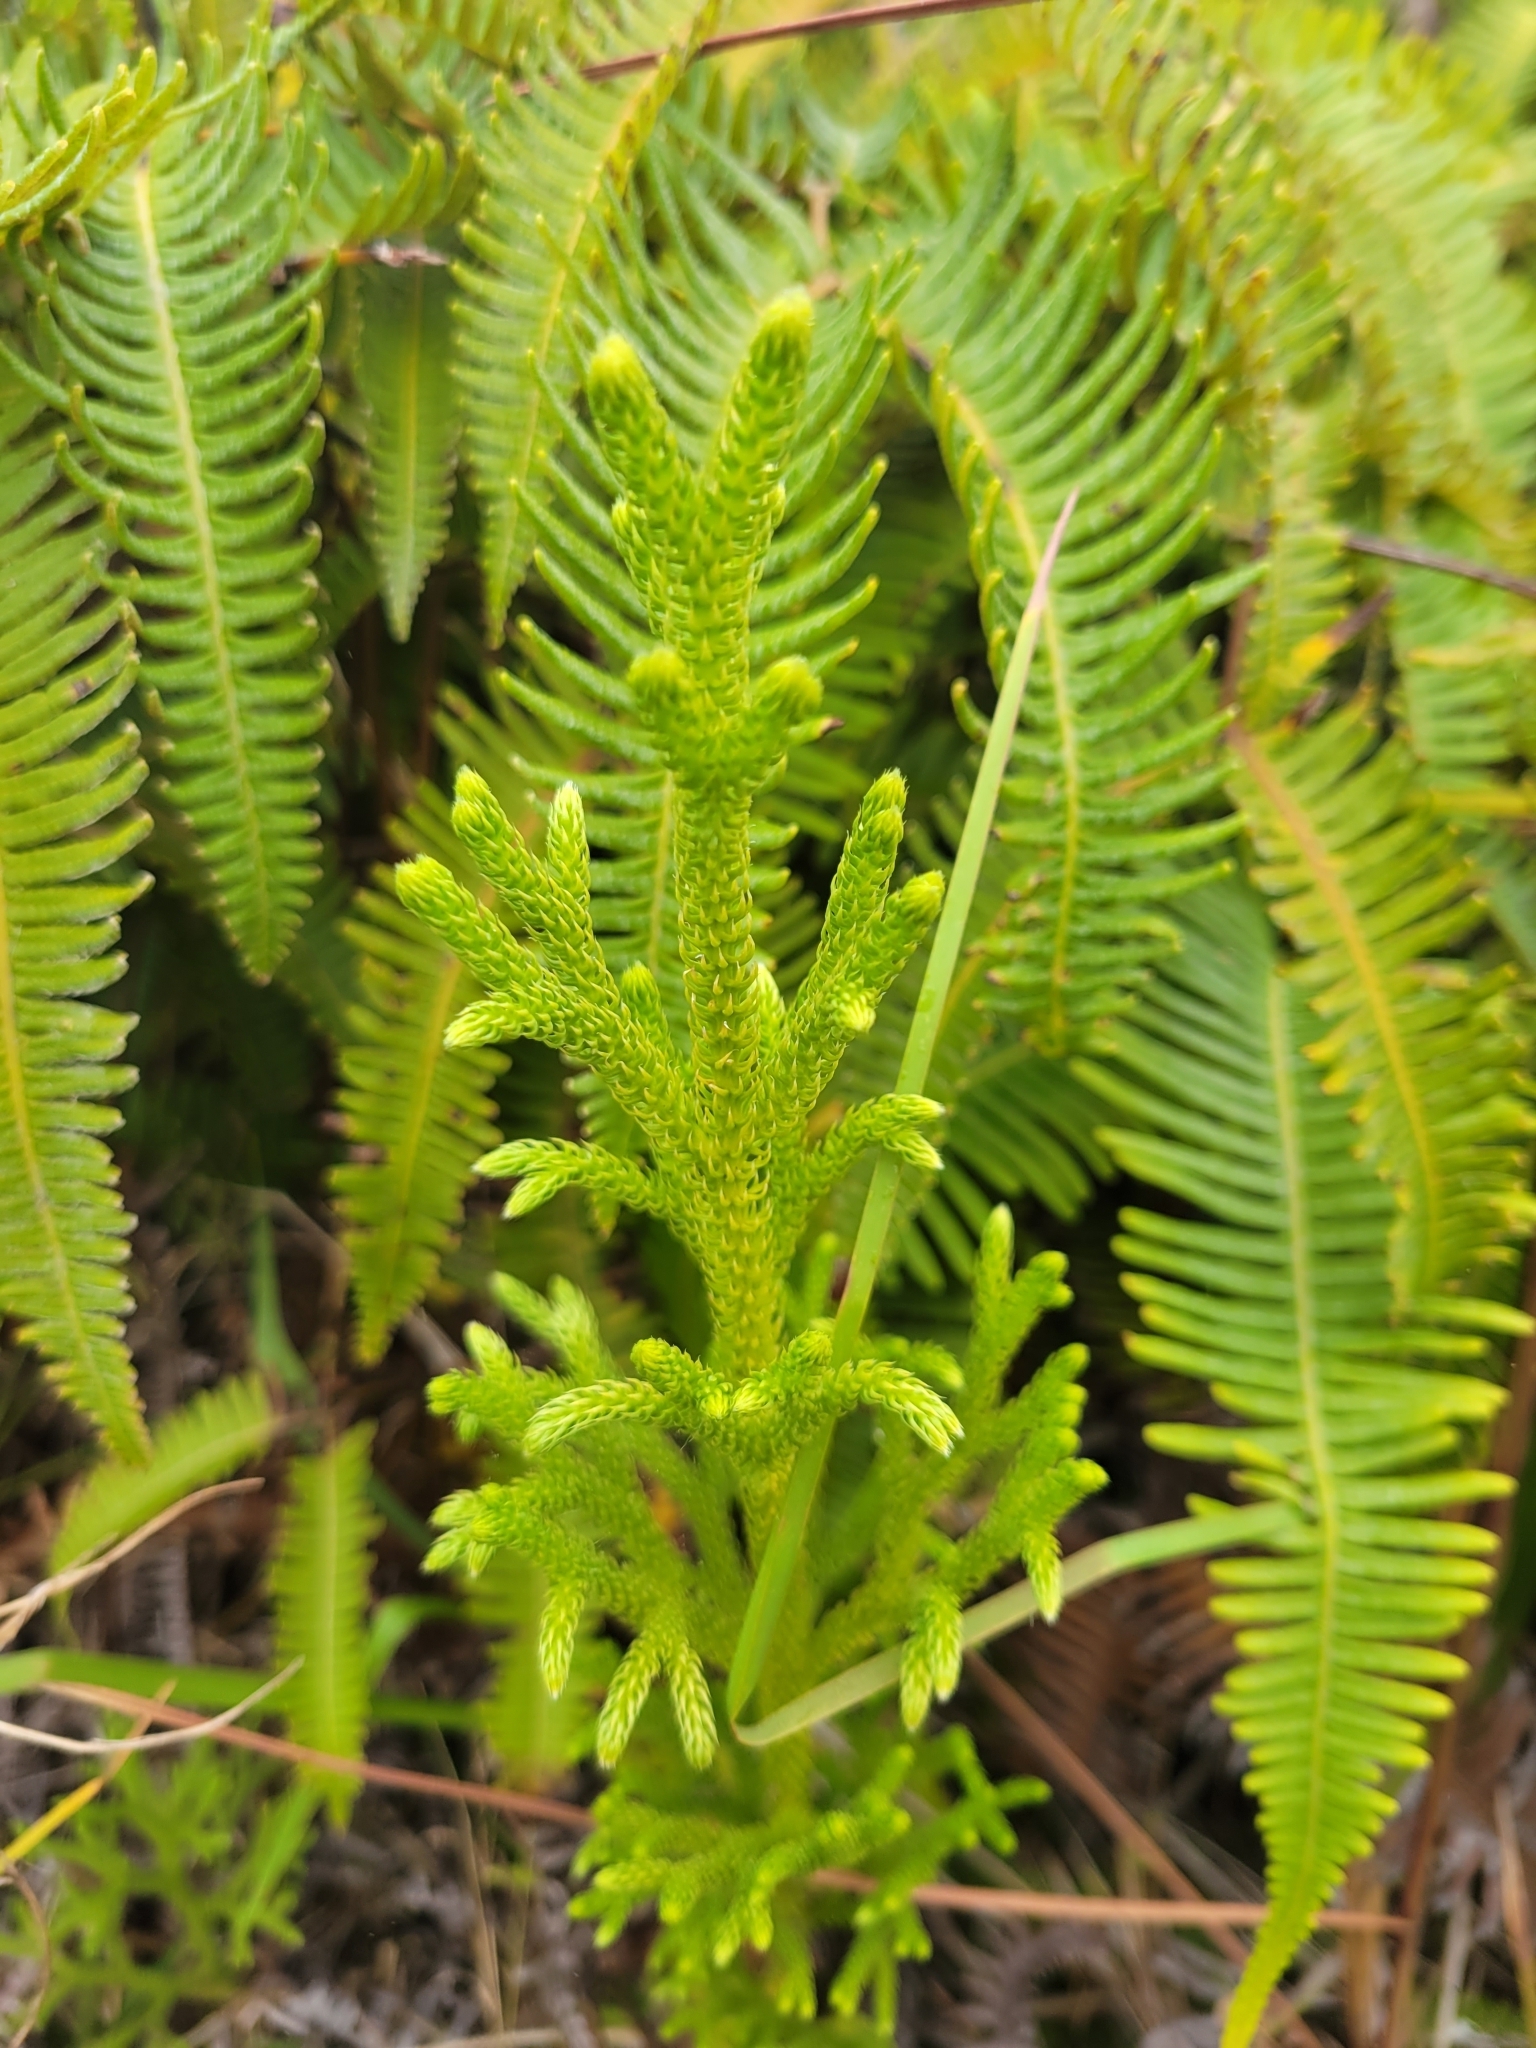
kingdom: Plantae
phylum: Tracheophyta
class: Lycopodiopsida
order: Lycopodiales
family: Lycopodiaceae
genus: Palhinhaea
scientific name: Palhinhaea cernua
